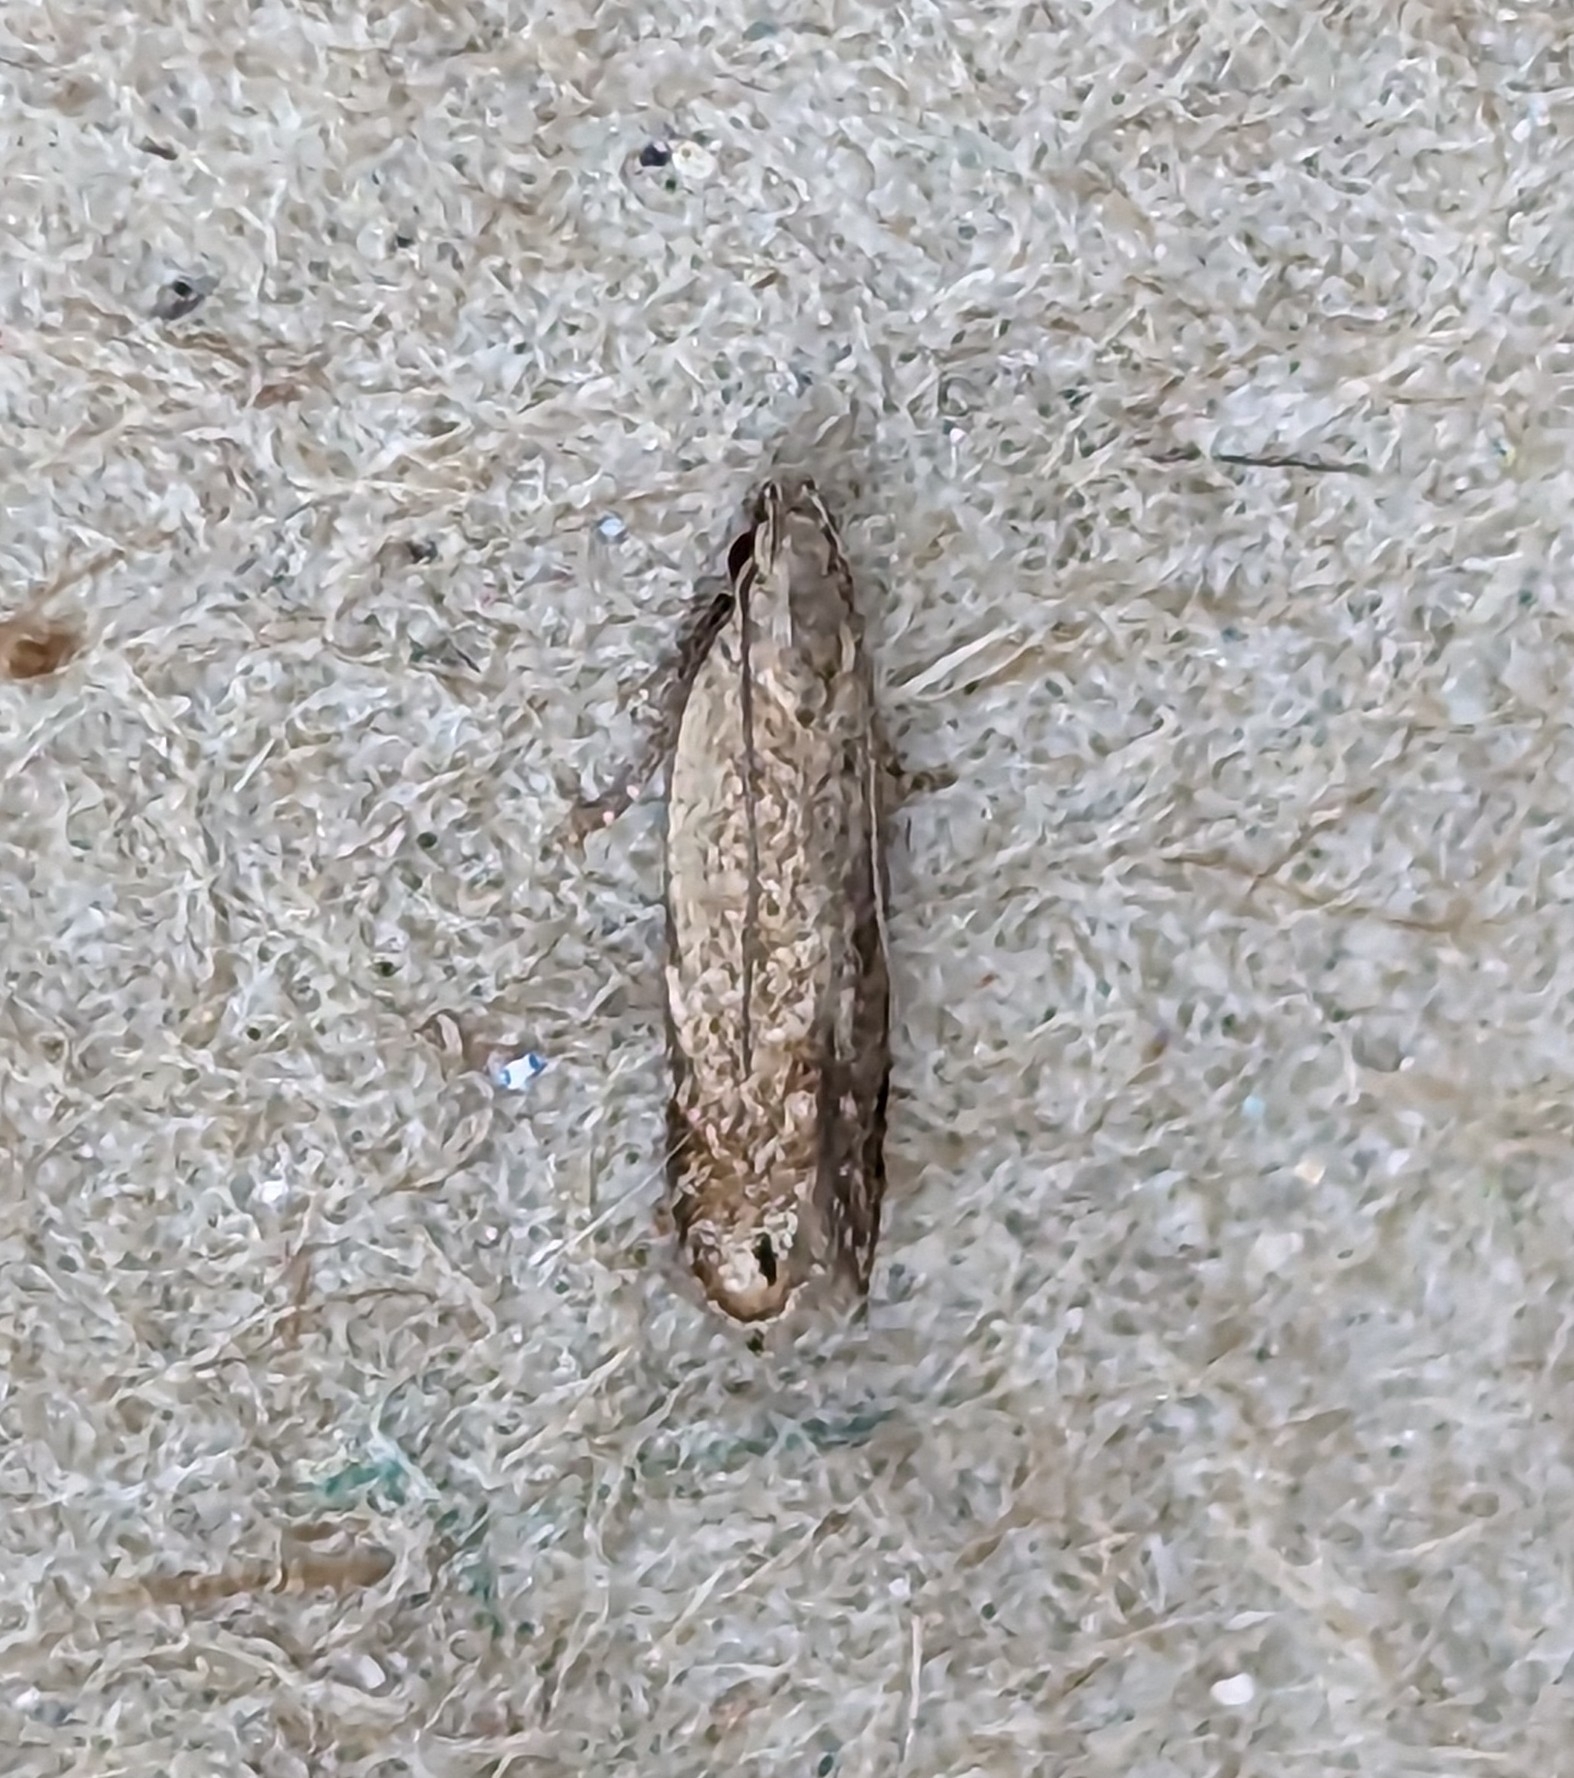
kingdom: Animalia
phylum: Arthropoda
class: Insecta
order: Lepidoptera
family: Gelechiidae
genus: Battaristis
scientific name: Battaristis concinnusella
